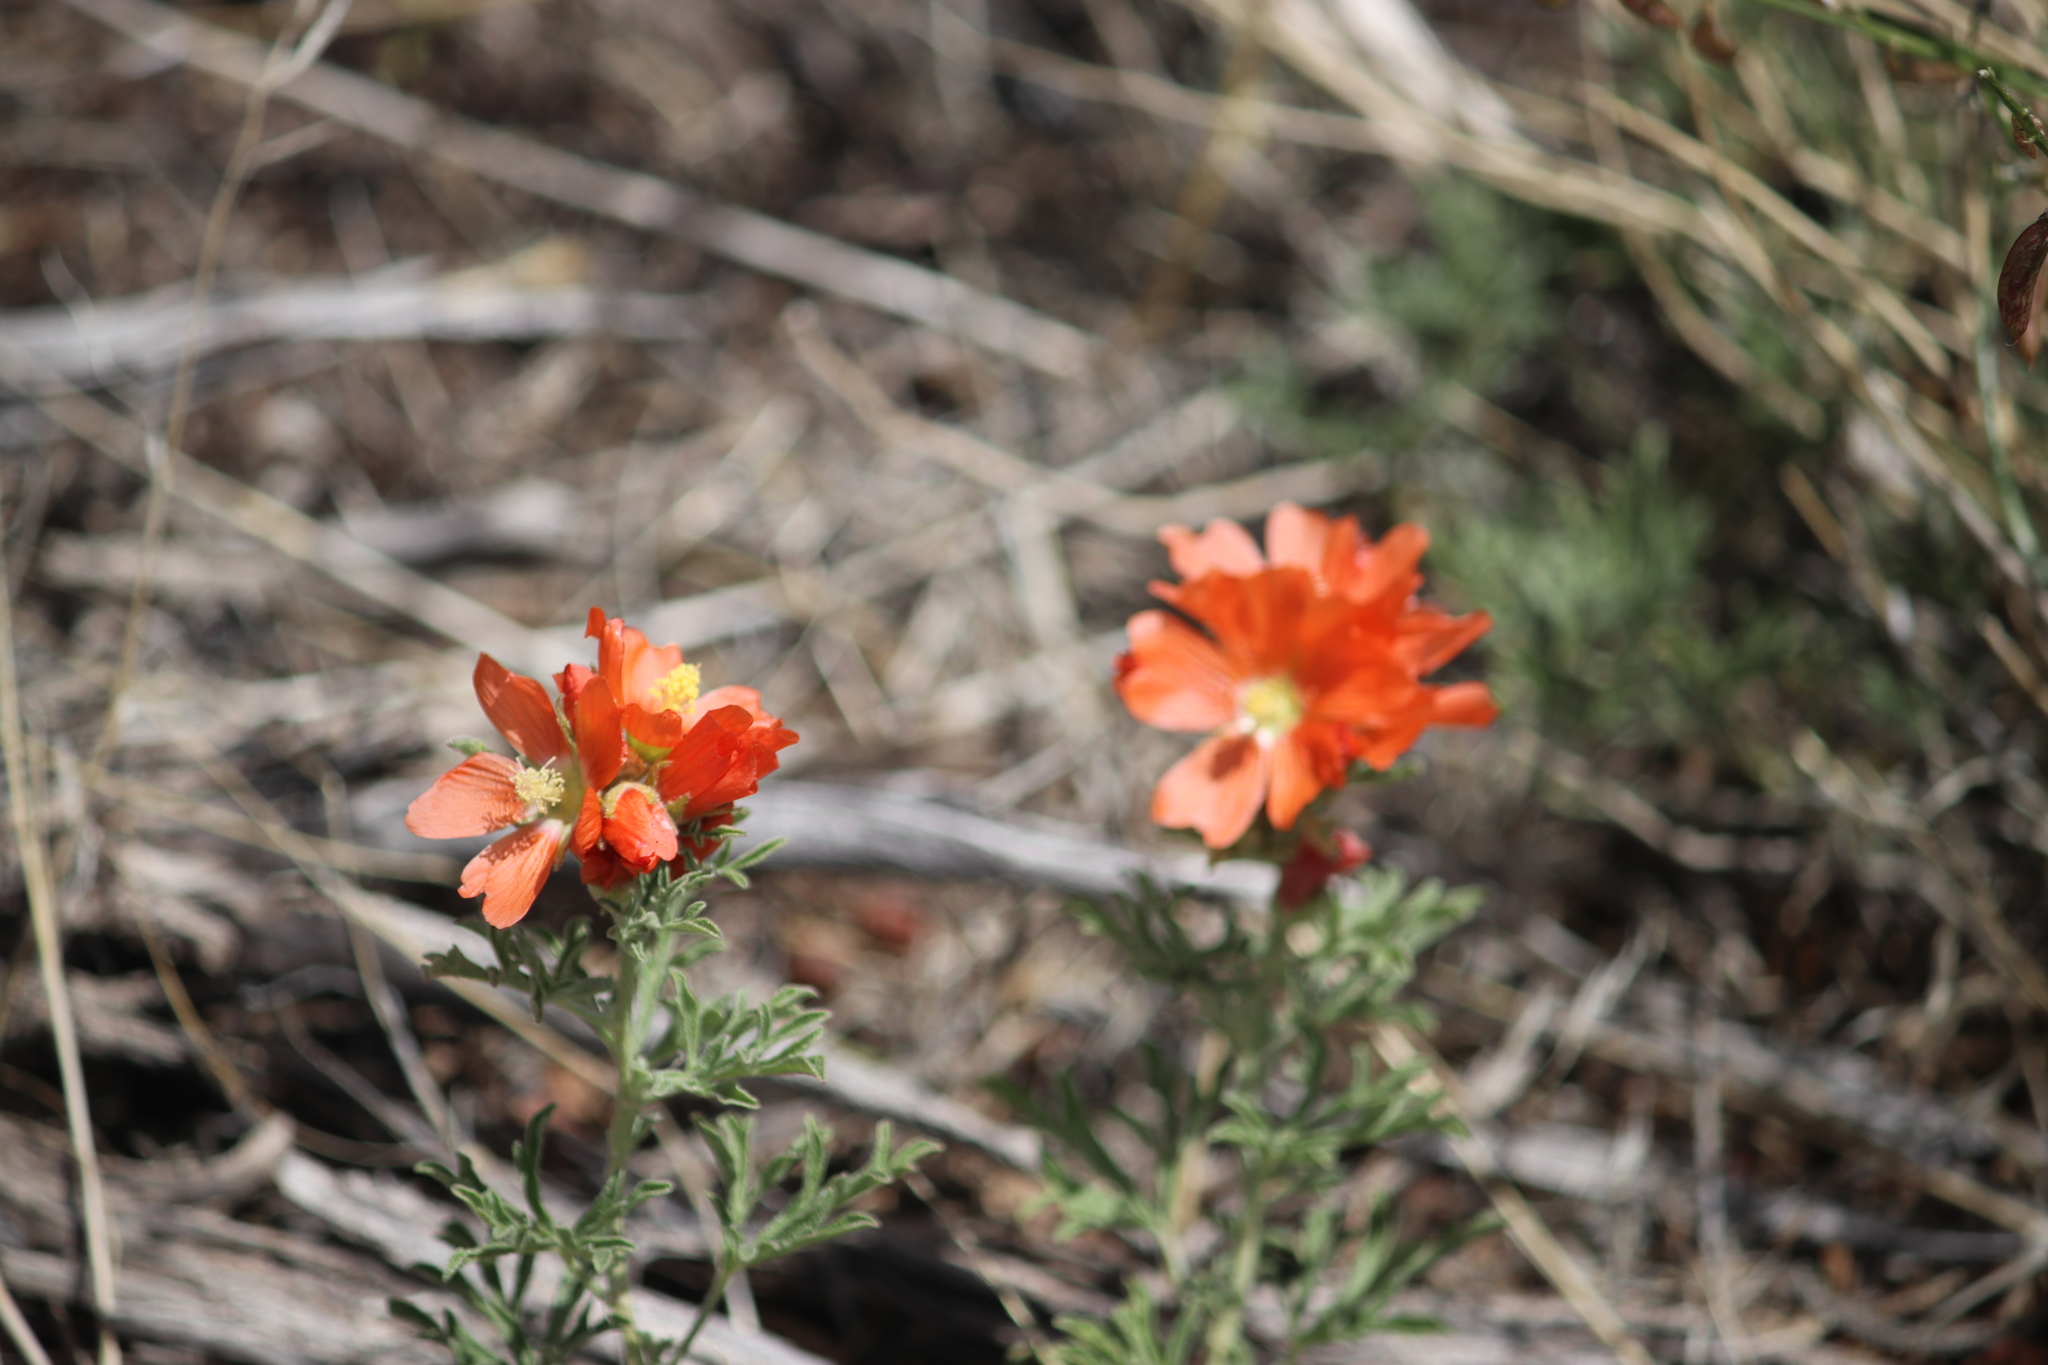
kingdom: Plantae
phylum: Tracheophyta
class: Magnoliopsida
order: Malvales
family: Malvaceae
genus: Sphaeralcea
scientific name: Sphaeralcea coccinea
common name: Moss-rose
